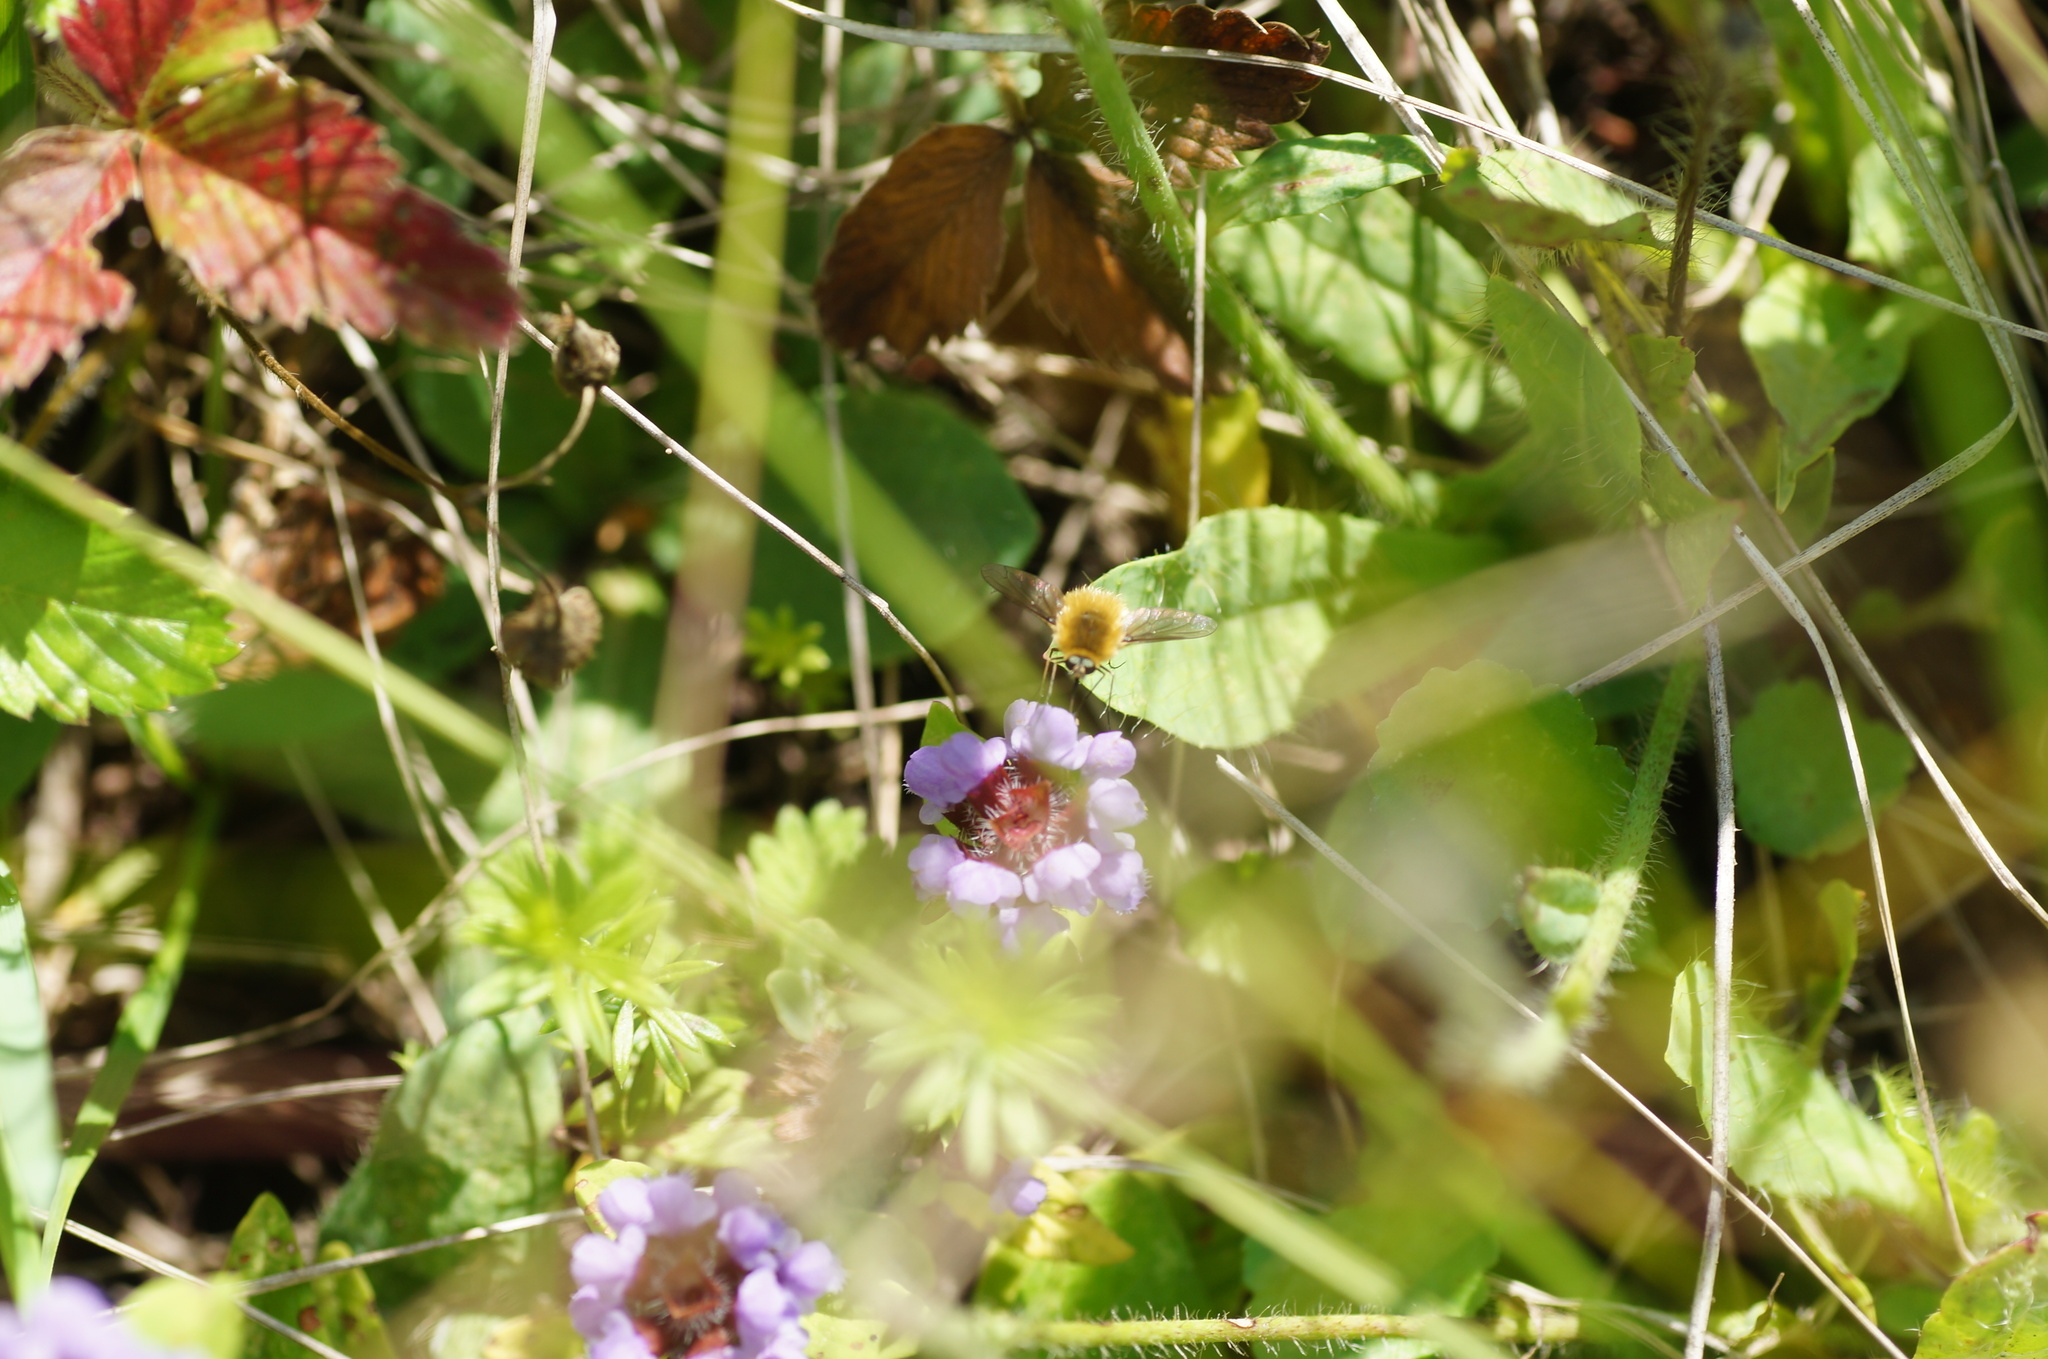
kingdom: Animalia
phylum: Arthropoda
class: Insecta
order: Diptera
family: Bombyliidae
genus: Systoechus
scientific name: Systoechus
